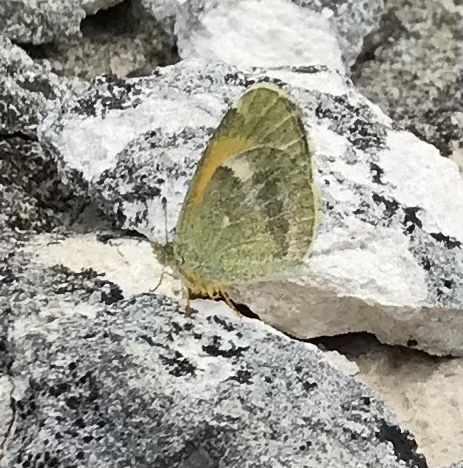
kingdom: Animalia
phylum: Arthropoda
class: Insecta
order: Lepidoptera
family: Pieridae
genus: Nathalis
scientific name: Nathalis iole
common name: Dainty sulphur
